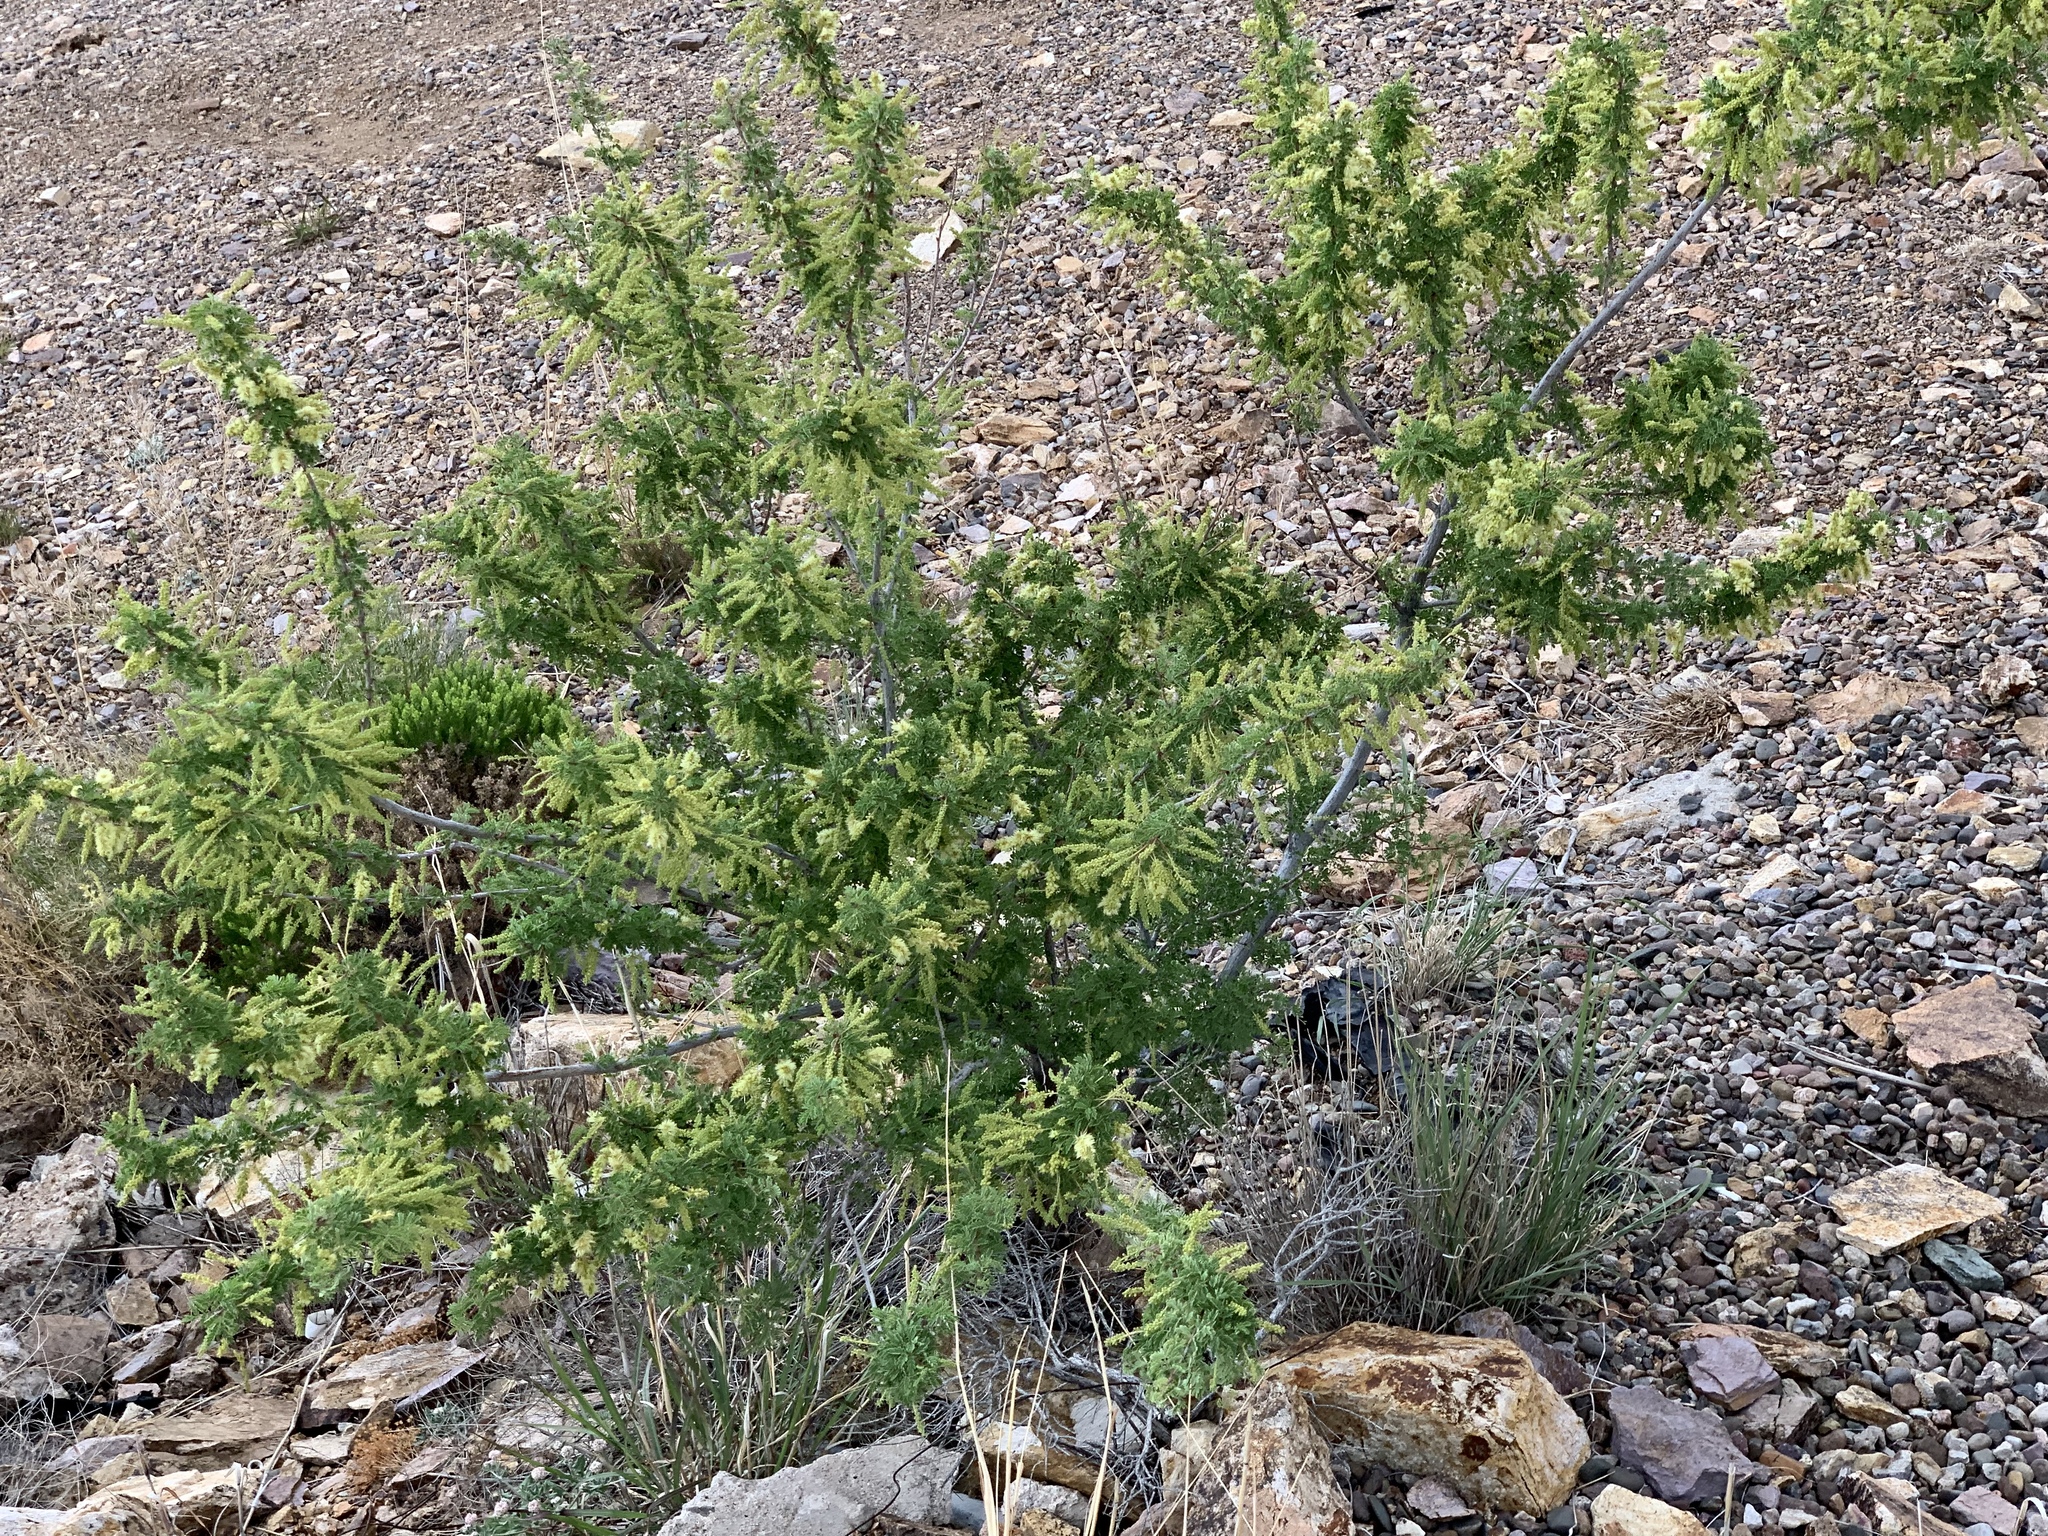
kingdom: Plantae
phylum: Tracheophyta
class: Magnoliopsida
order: Fabales
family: Fabaceae
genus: Senegalia
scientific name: Senegalia greggii
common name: Texas-mimosa
